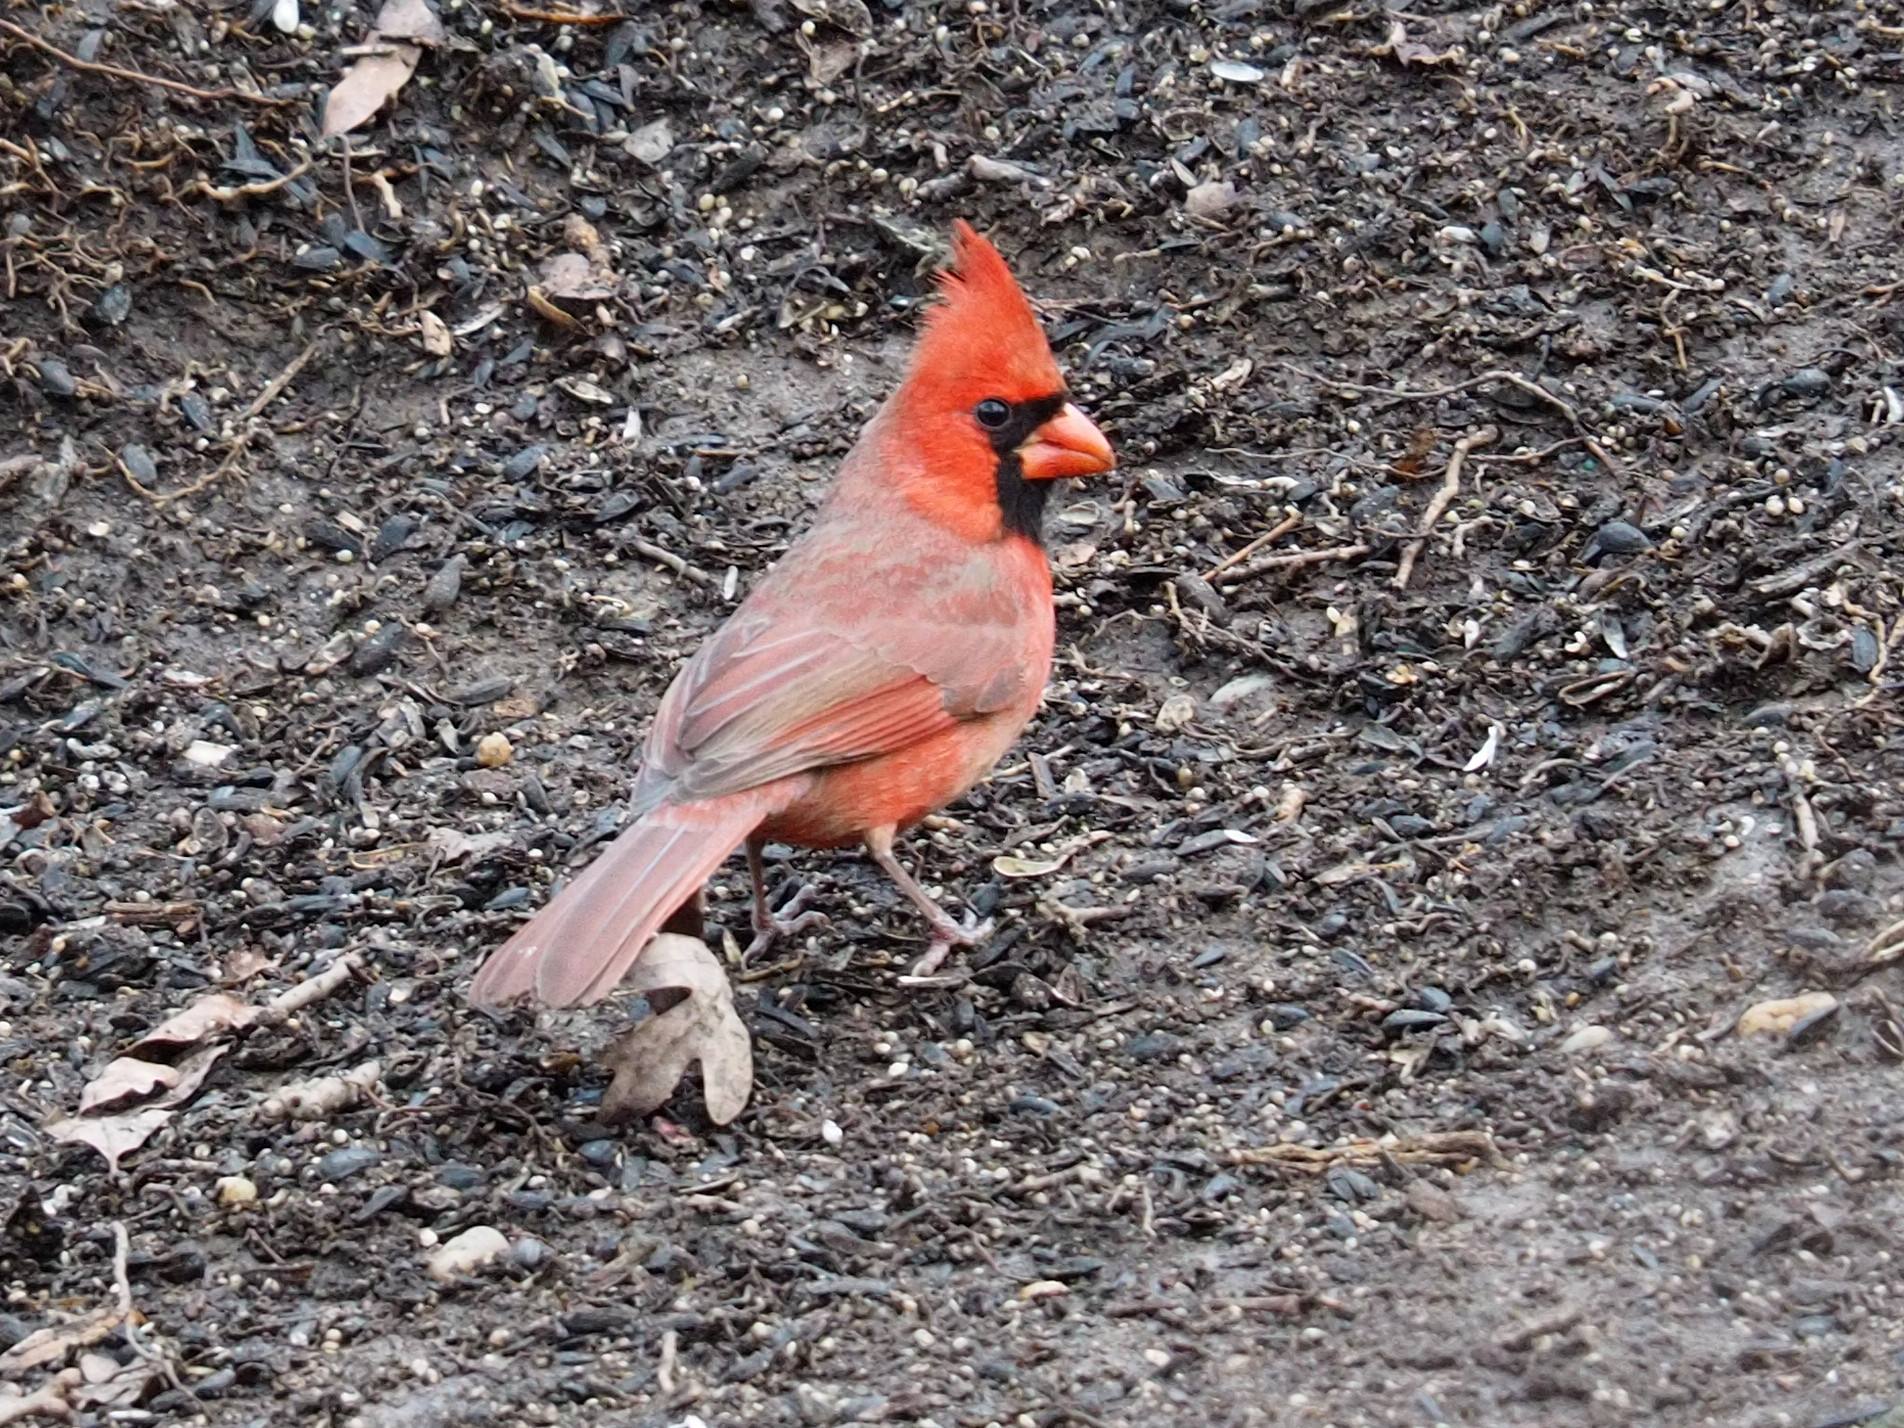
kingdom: Animalia
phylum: Chordata
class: Aves
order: Passeriformes
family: Cardinalidae
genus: Cardinalis
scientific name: Cardinalis cardinalis
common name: Northern cardinal
